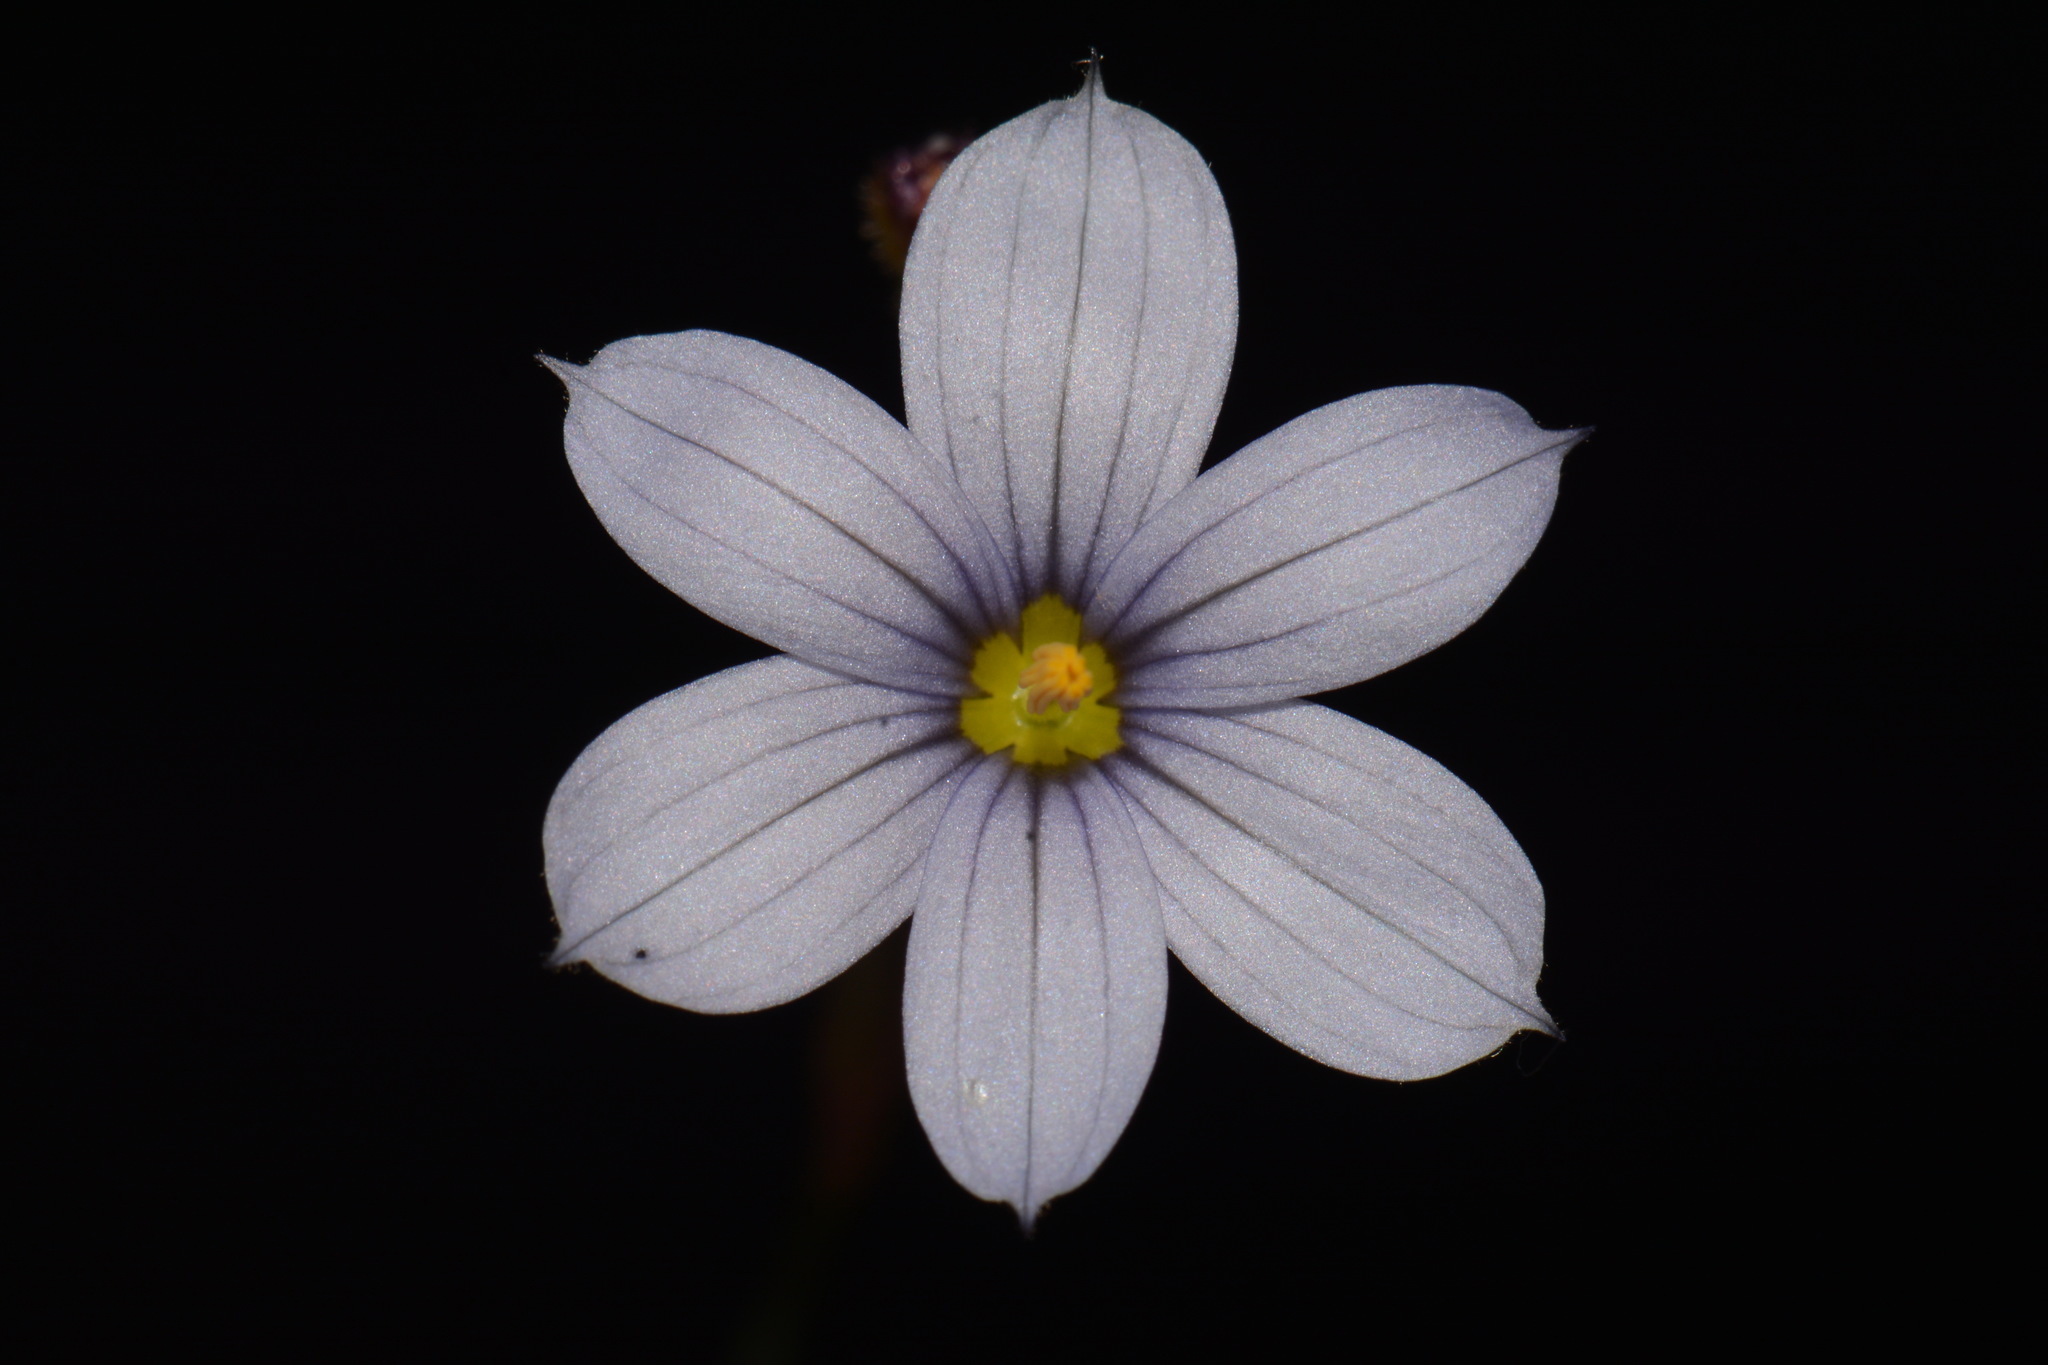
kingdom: Plantae
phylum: Tracheophyta
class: Liliopsida
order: Asparagales
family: Iridaceae
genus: Sisyrinchium
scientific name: Sisyrinchium nashii
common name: Nash's blue-eyed-grass
